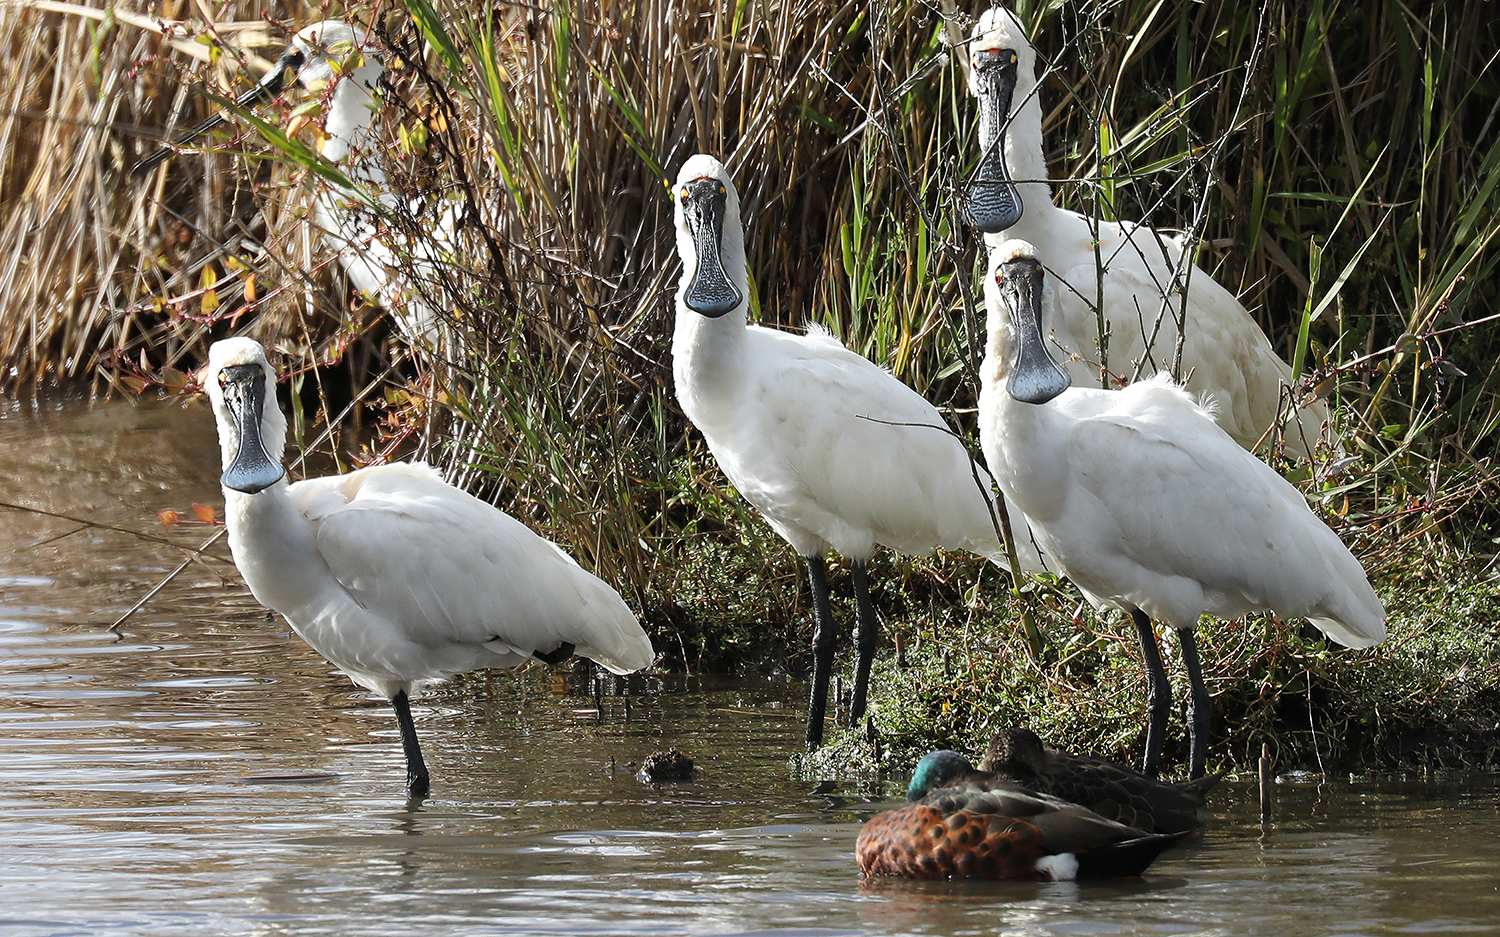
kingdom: Animalia
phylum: Chordata
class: Aves
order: Pelecaniformes
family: Threskiornithidae
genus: Platalea
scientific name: Platalea regia
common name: Royal spoonbill
